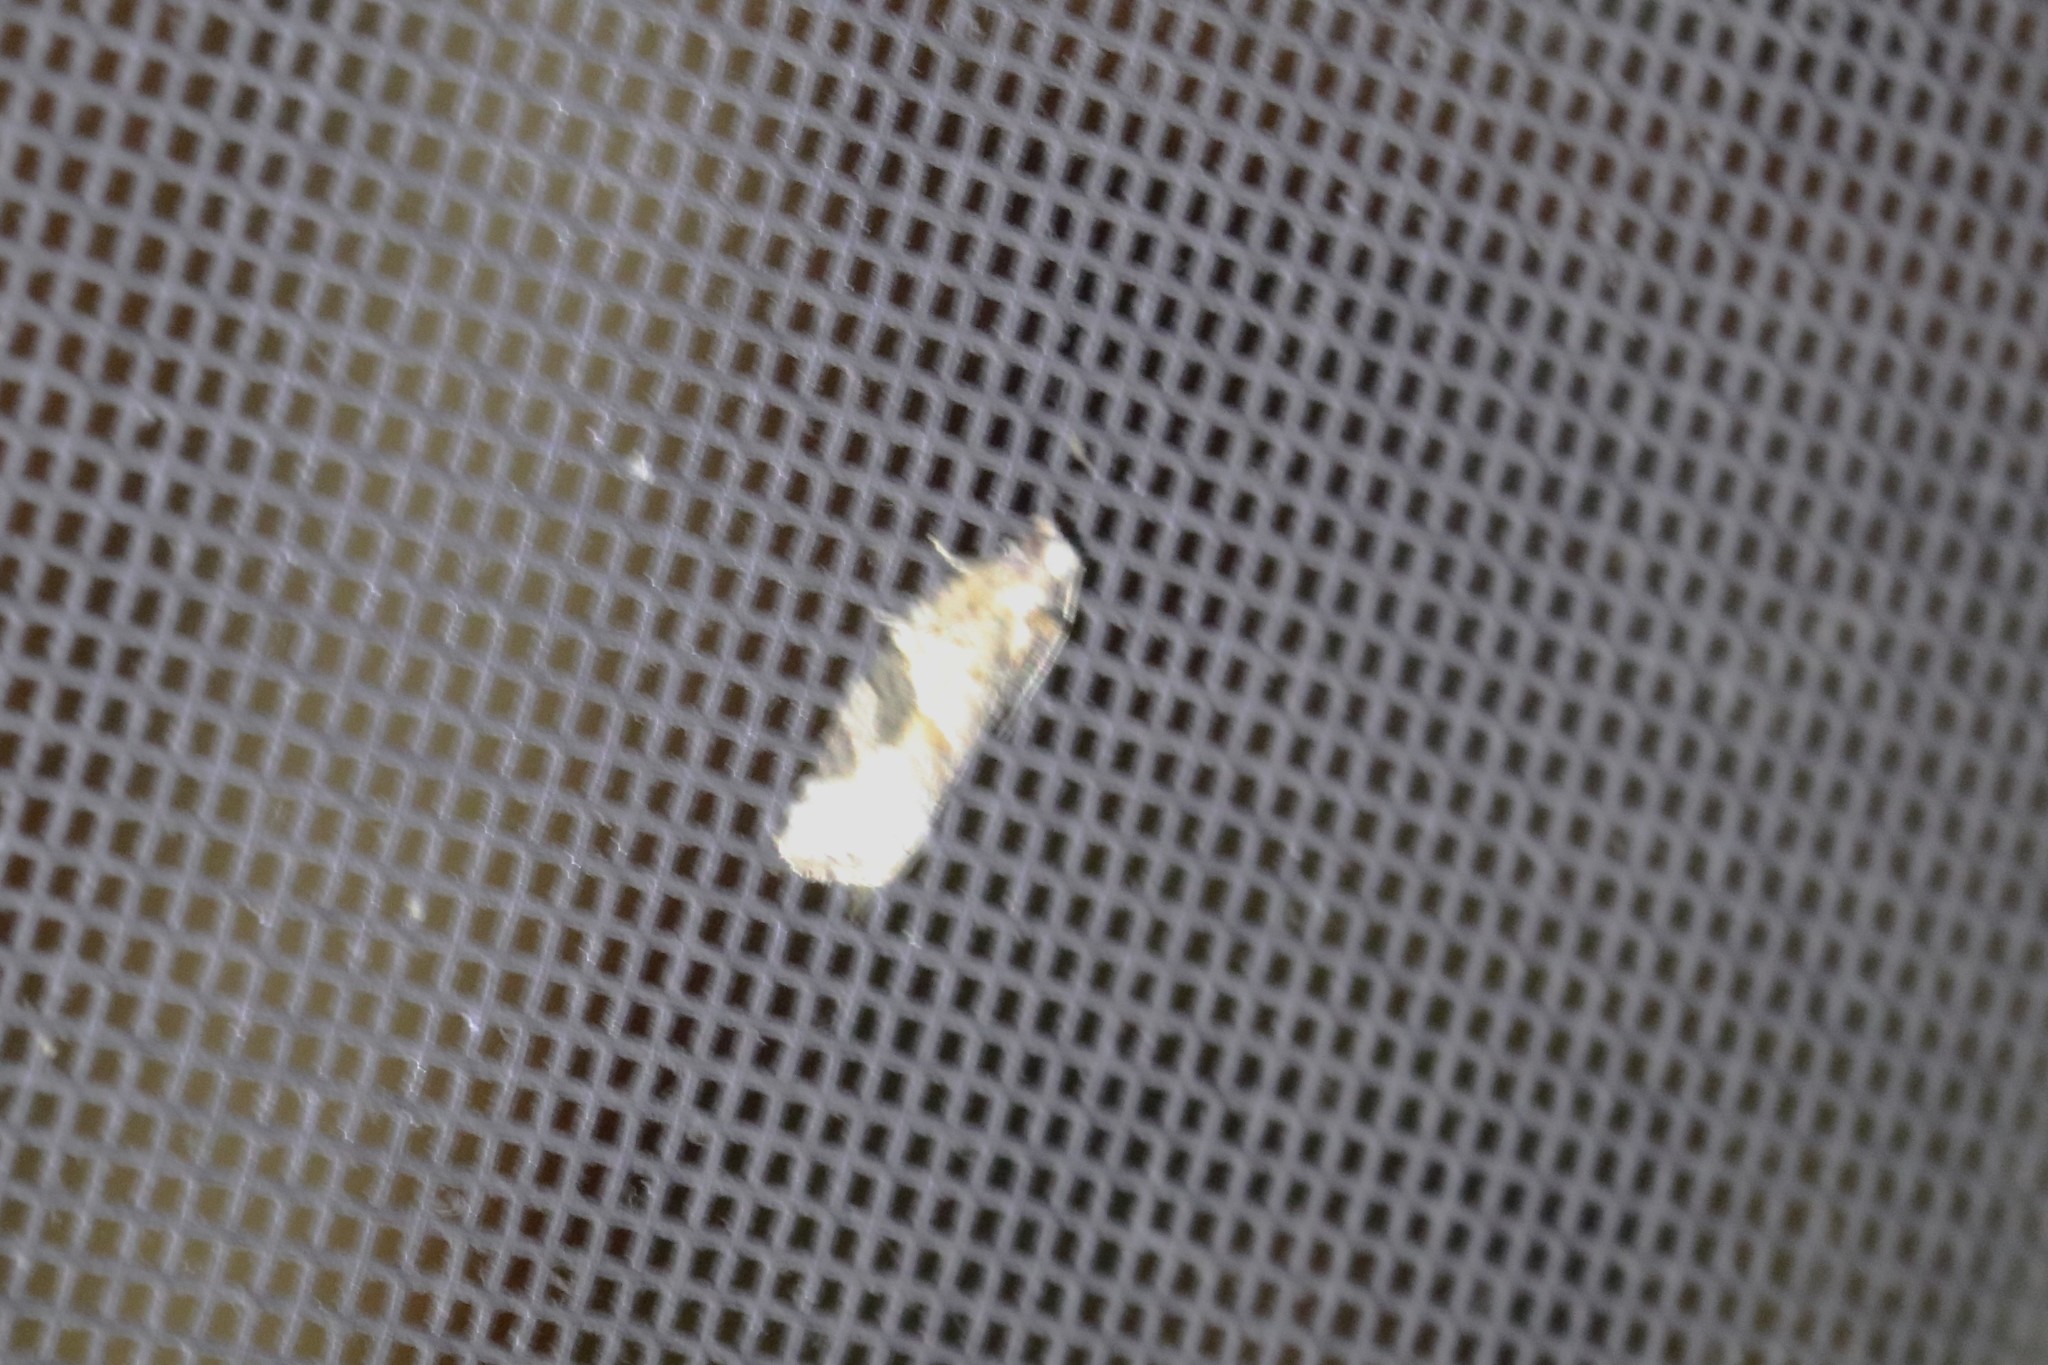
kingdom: Animalia
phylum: Arthropoda
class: Insecta
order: Lepidoptera
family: Tortricidae
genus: Argyrotaenia
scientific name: Argyrotaenia mariana
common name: Gray-banded leafroller moth
